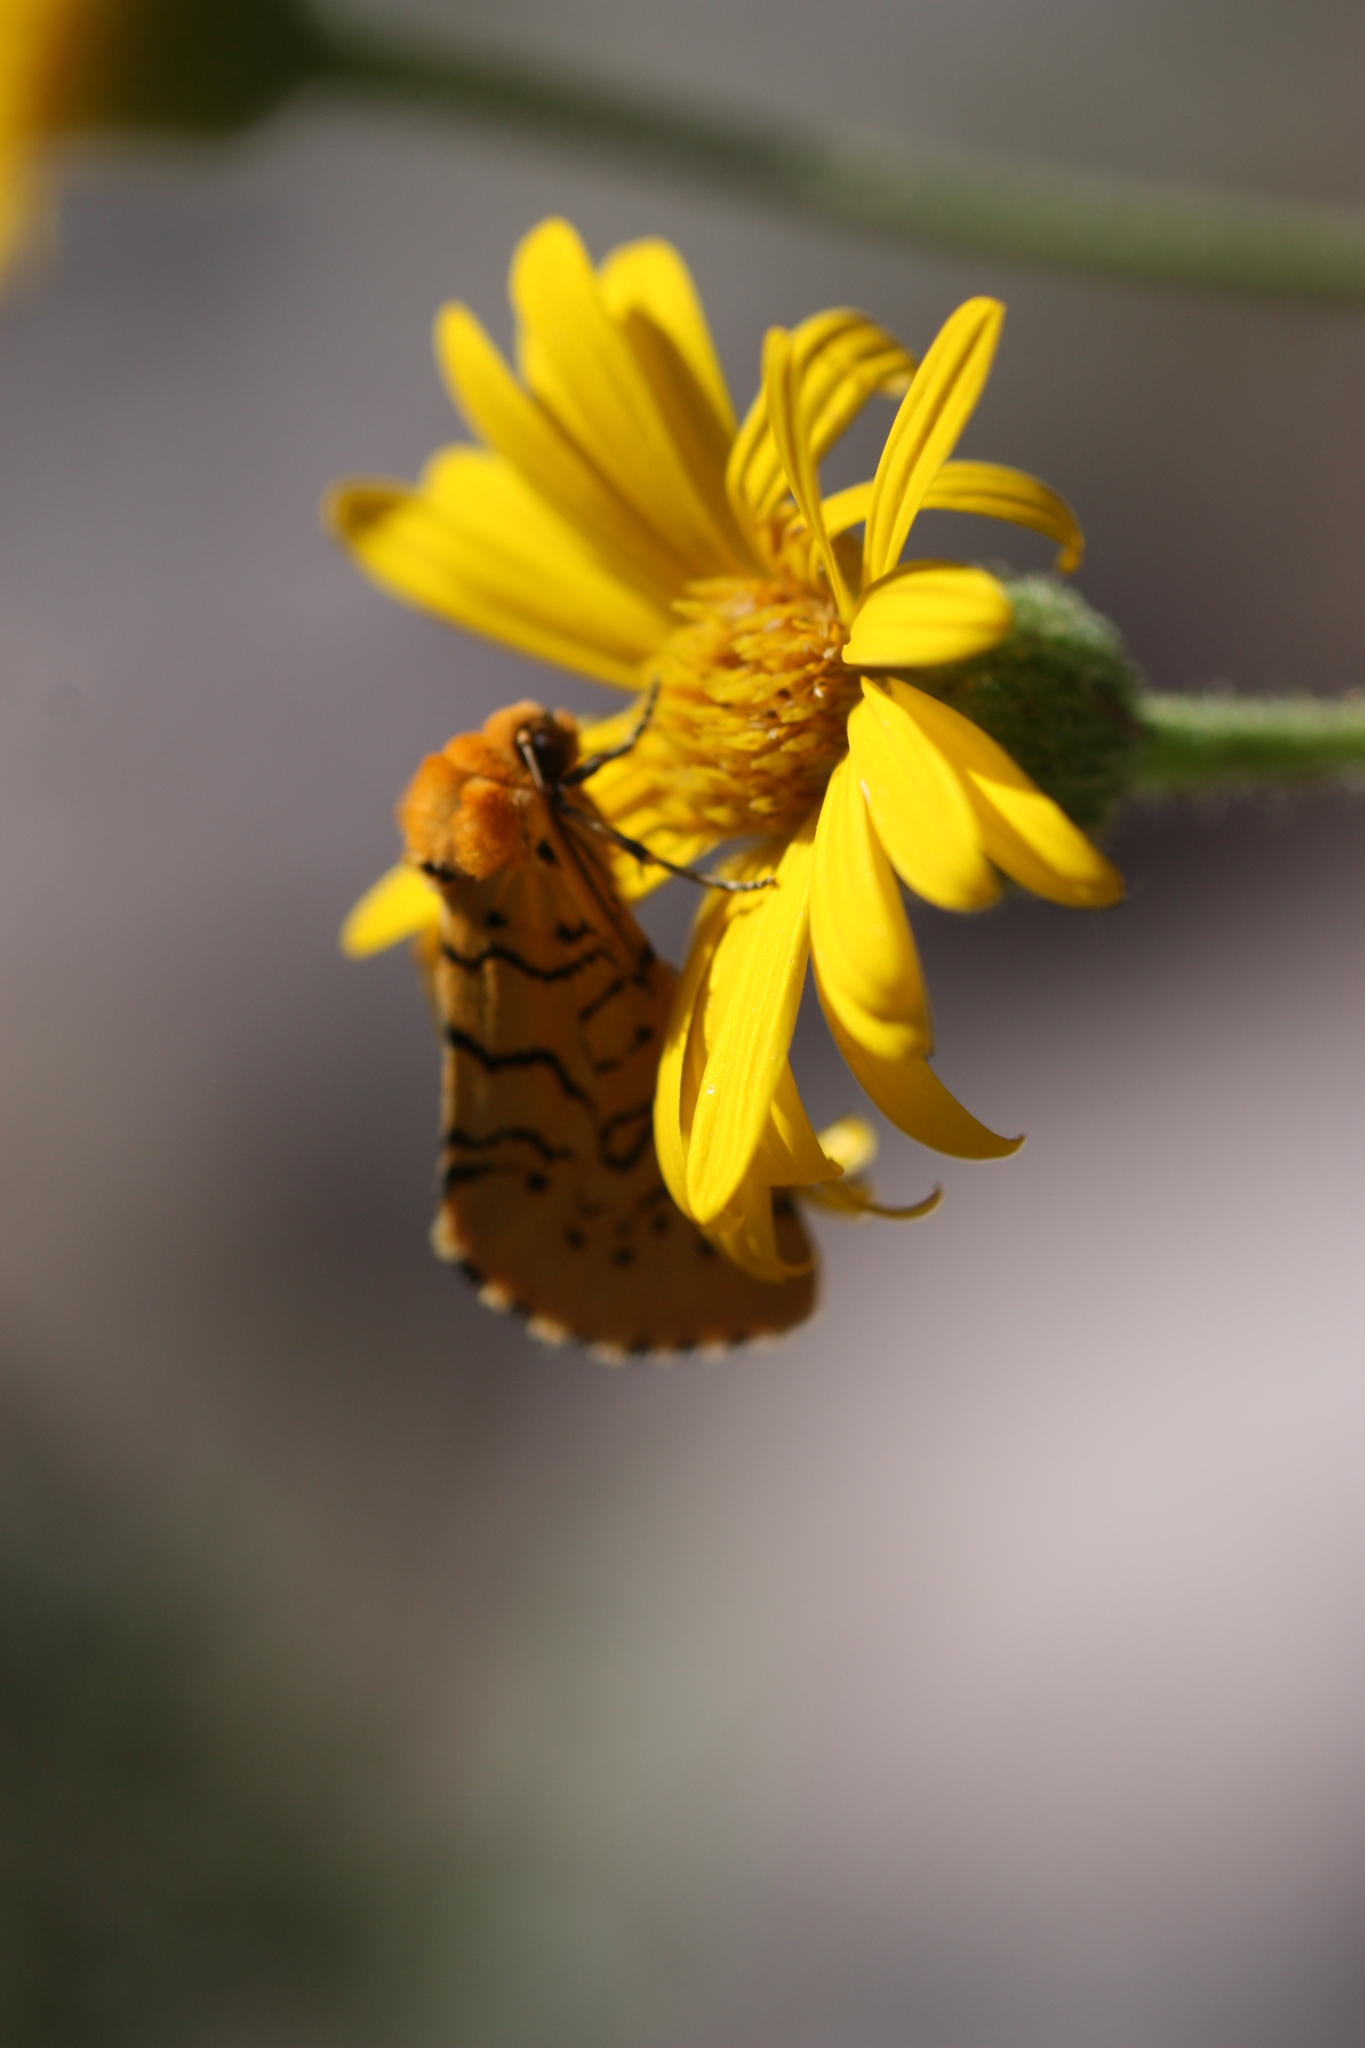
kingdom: Animalia
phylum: Arthropoda
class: Insecta
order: Lepidoptera
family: Noctuidae
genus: Chrysoecia
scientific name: Chrysoecia atrolinea
